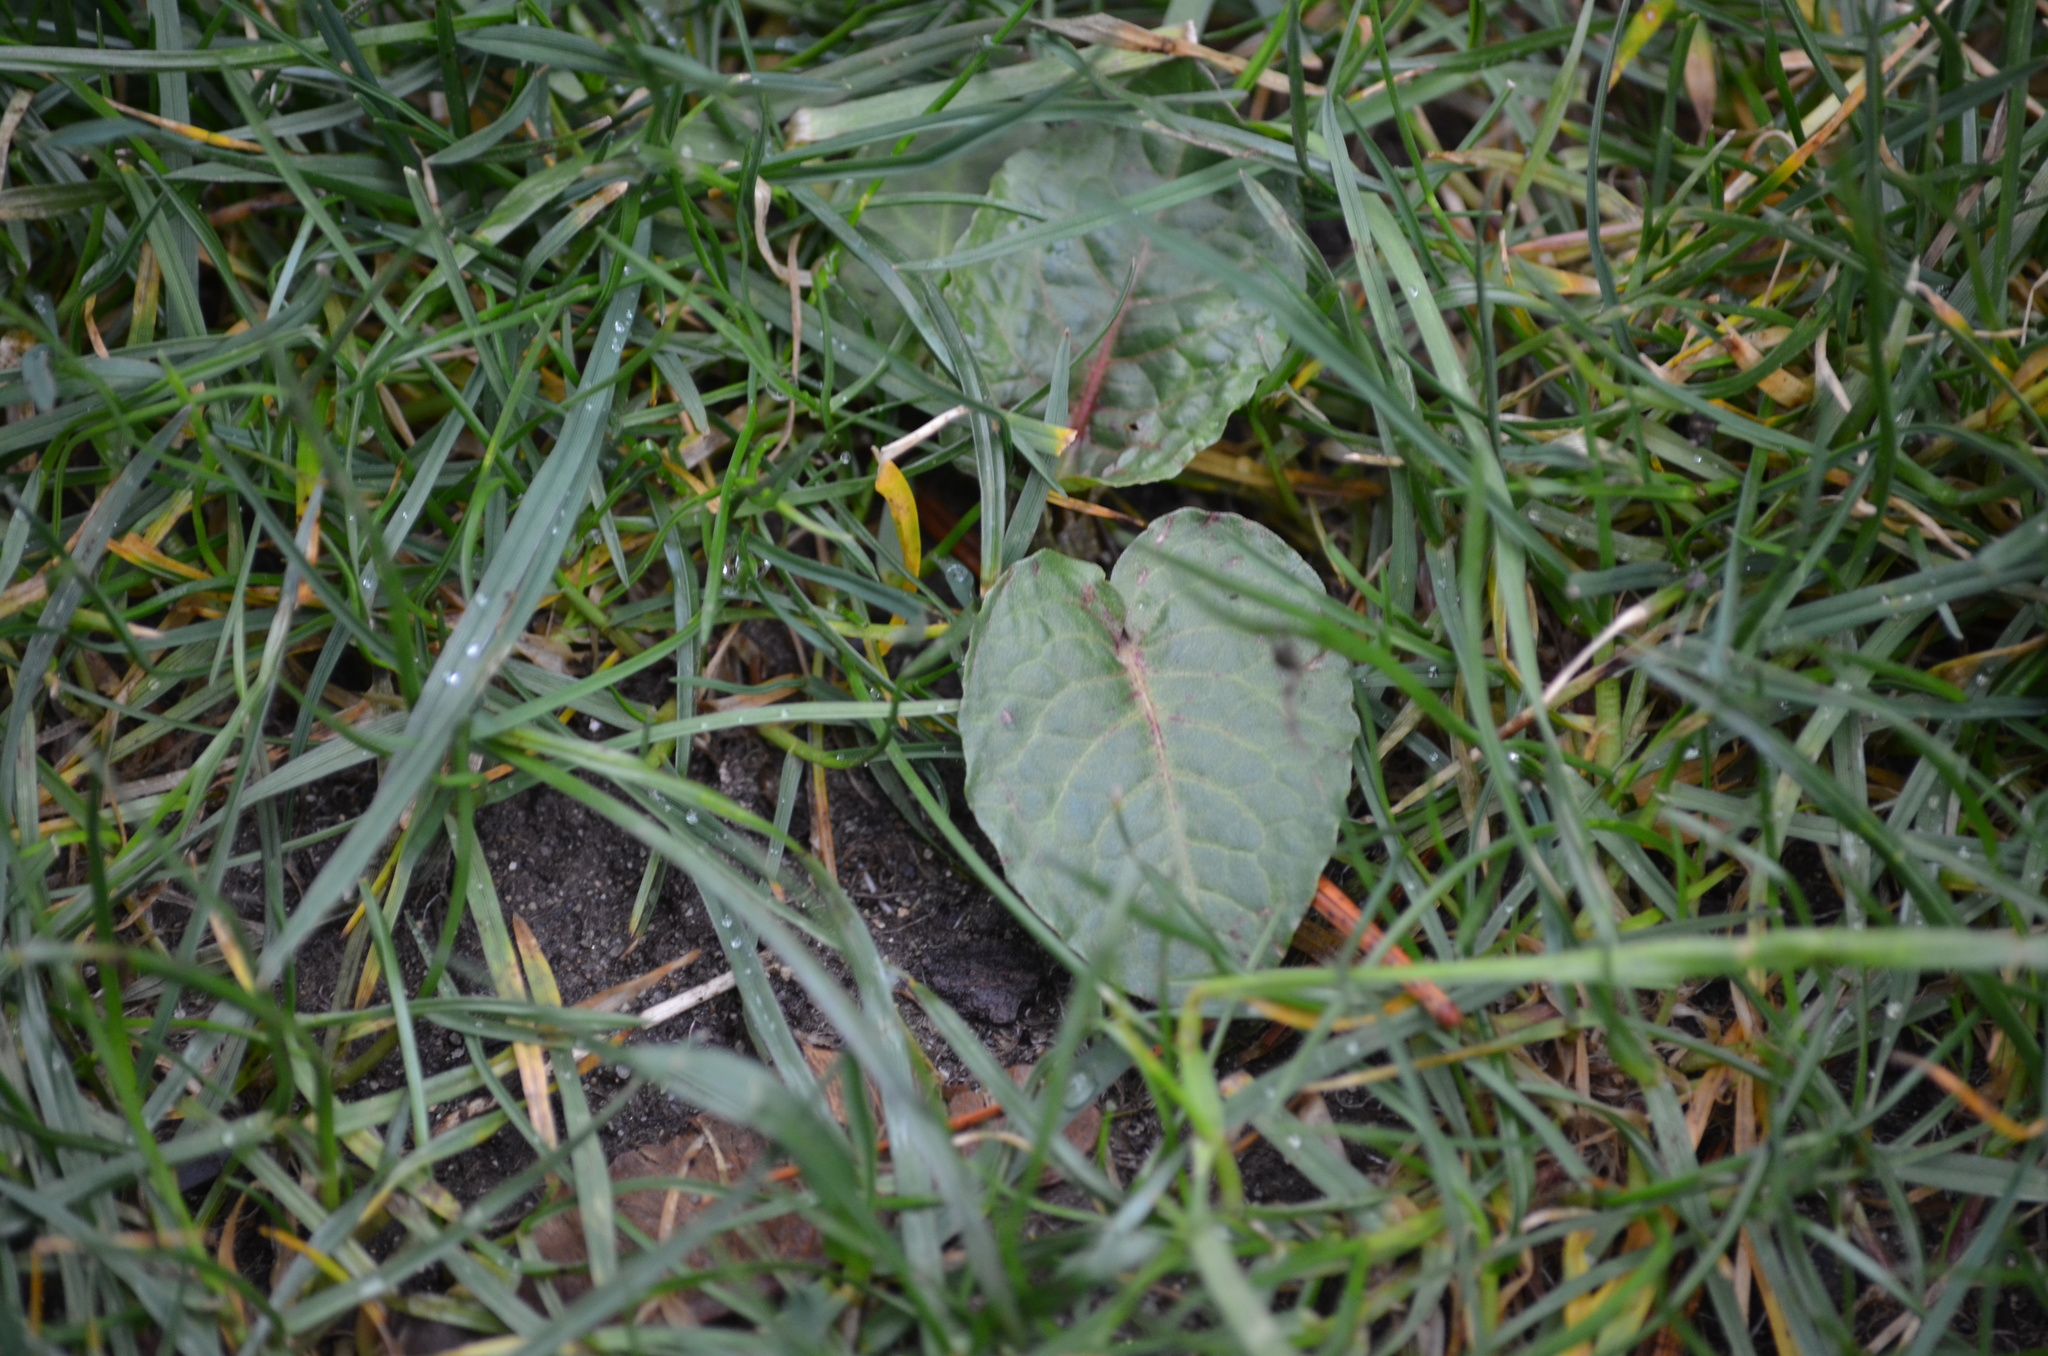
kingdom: Plantae
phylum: Tracheophyta
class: Magnoliopsida
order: Caryophyllales
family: Polygonaceae
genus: Rumex
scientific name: Rumex obtusifolius
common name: Bitter dock
